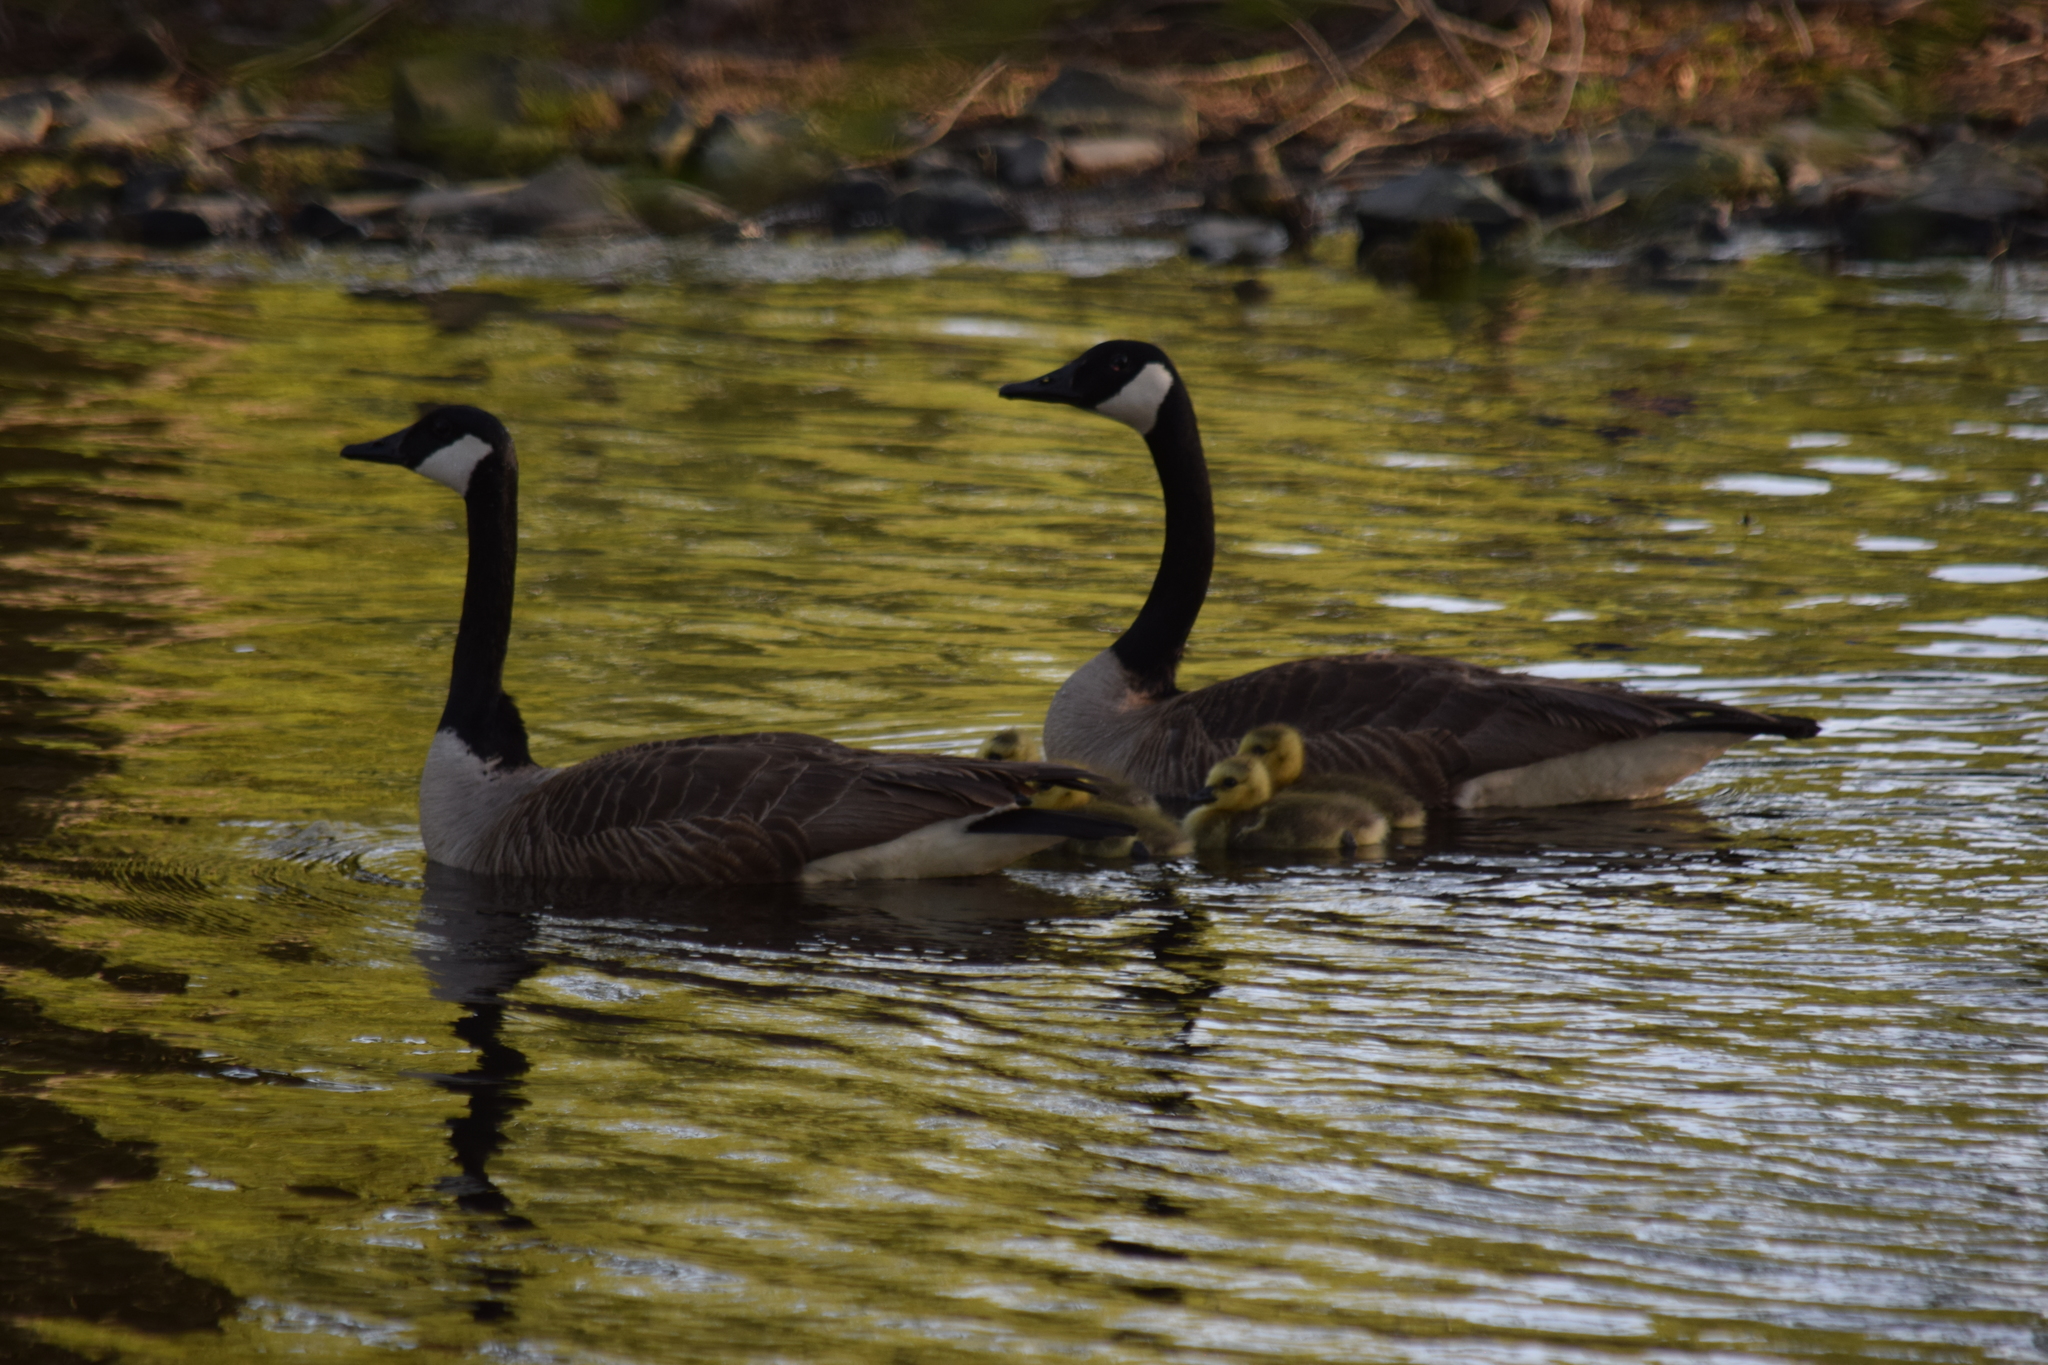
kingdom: Animalia
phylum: Chordata
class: Aves
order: Anseriformes
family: Anatidae
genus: Branta
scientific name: Branta canadensis
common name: Canada goose
